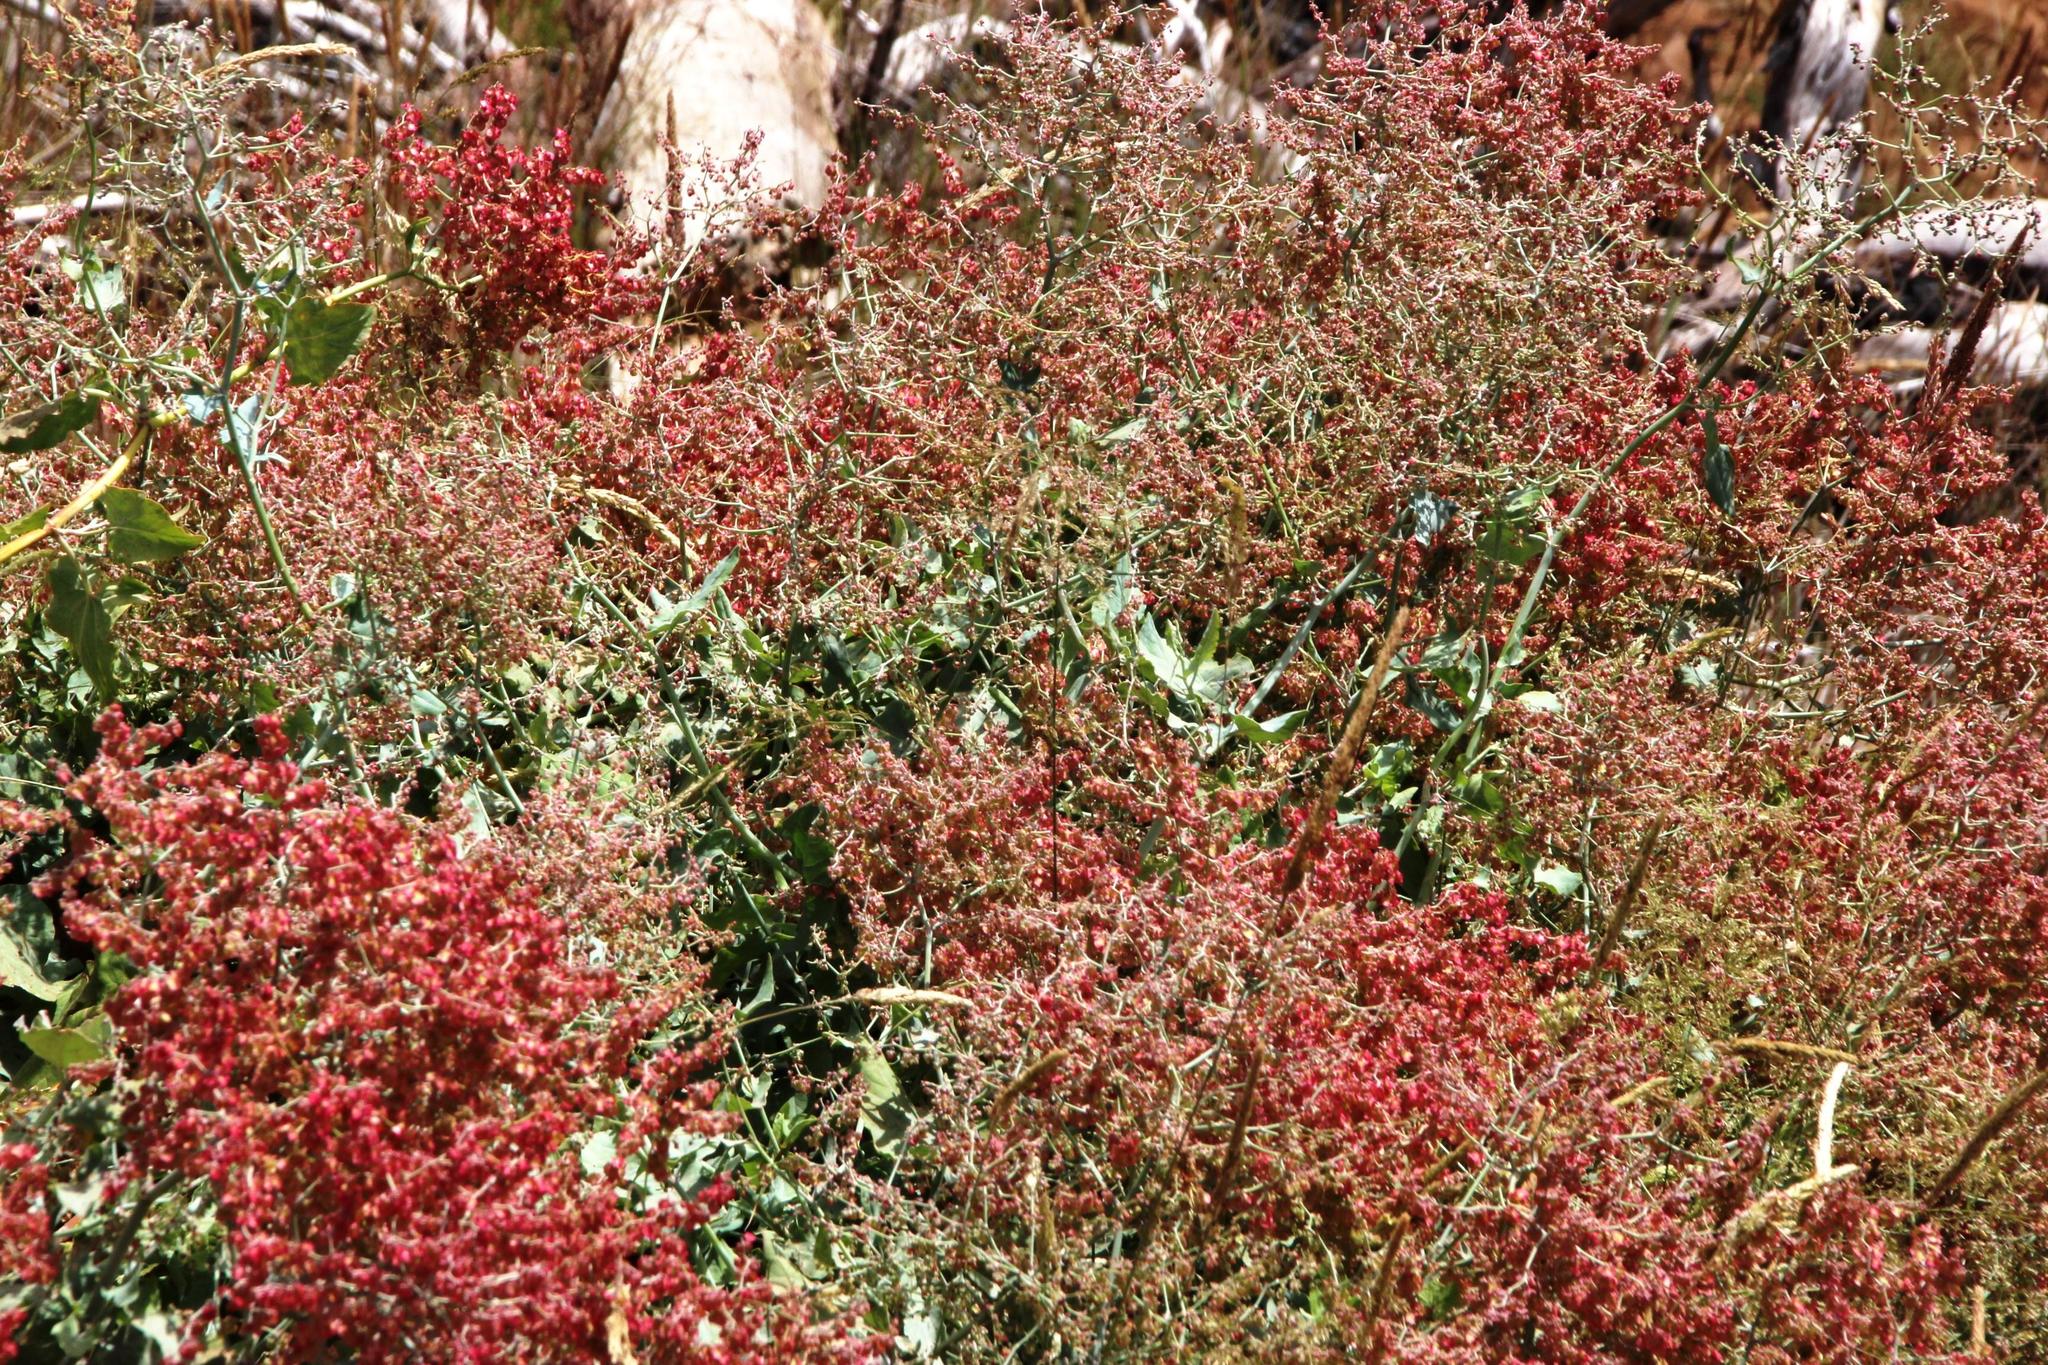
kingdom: Plantae
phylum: Tracheophyta
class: Magnoliopsida
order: Caryophyllales
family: Polygonaceae
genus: Rumex
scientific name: Rumex maderensis
